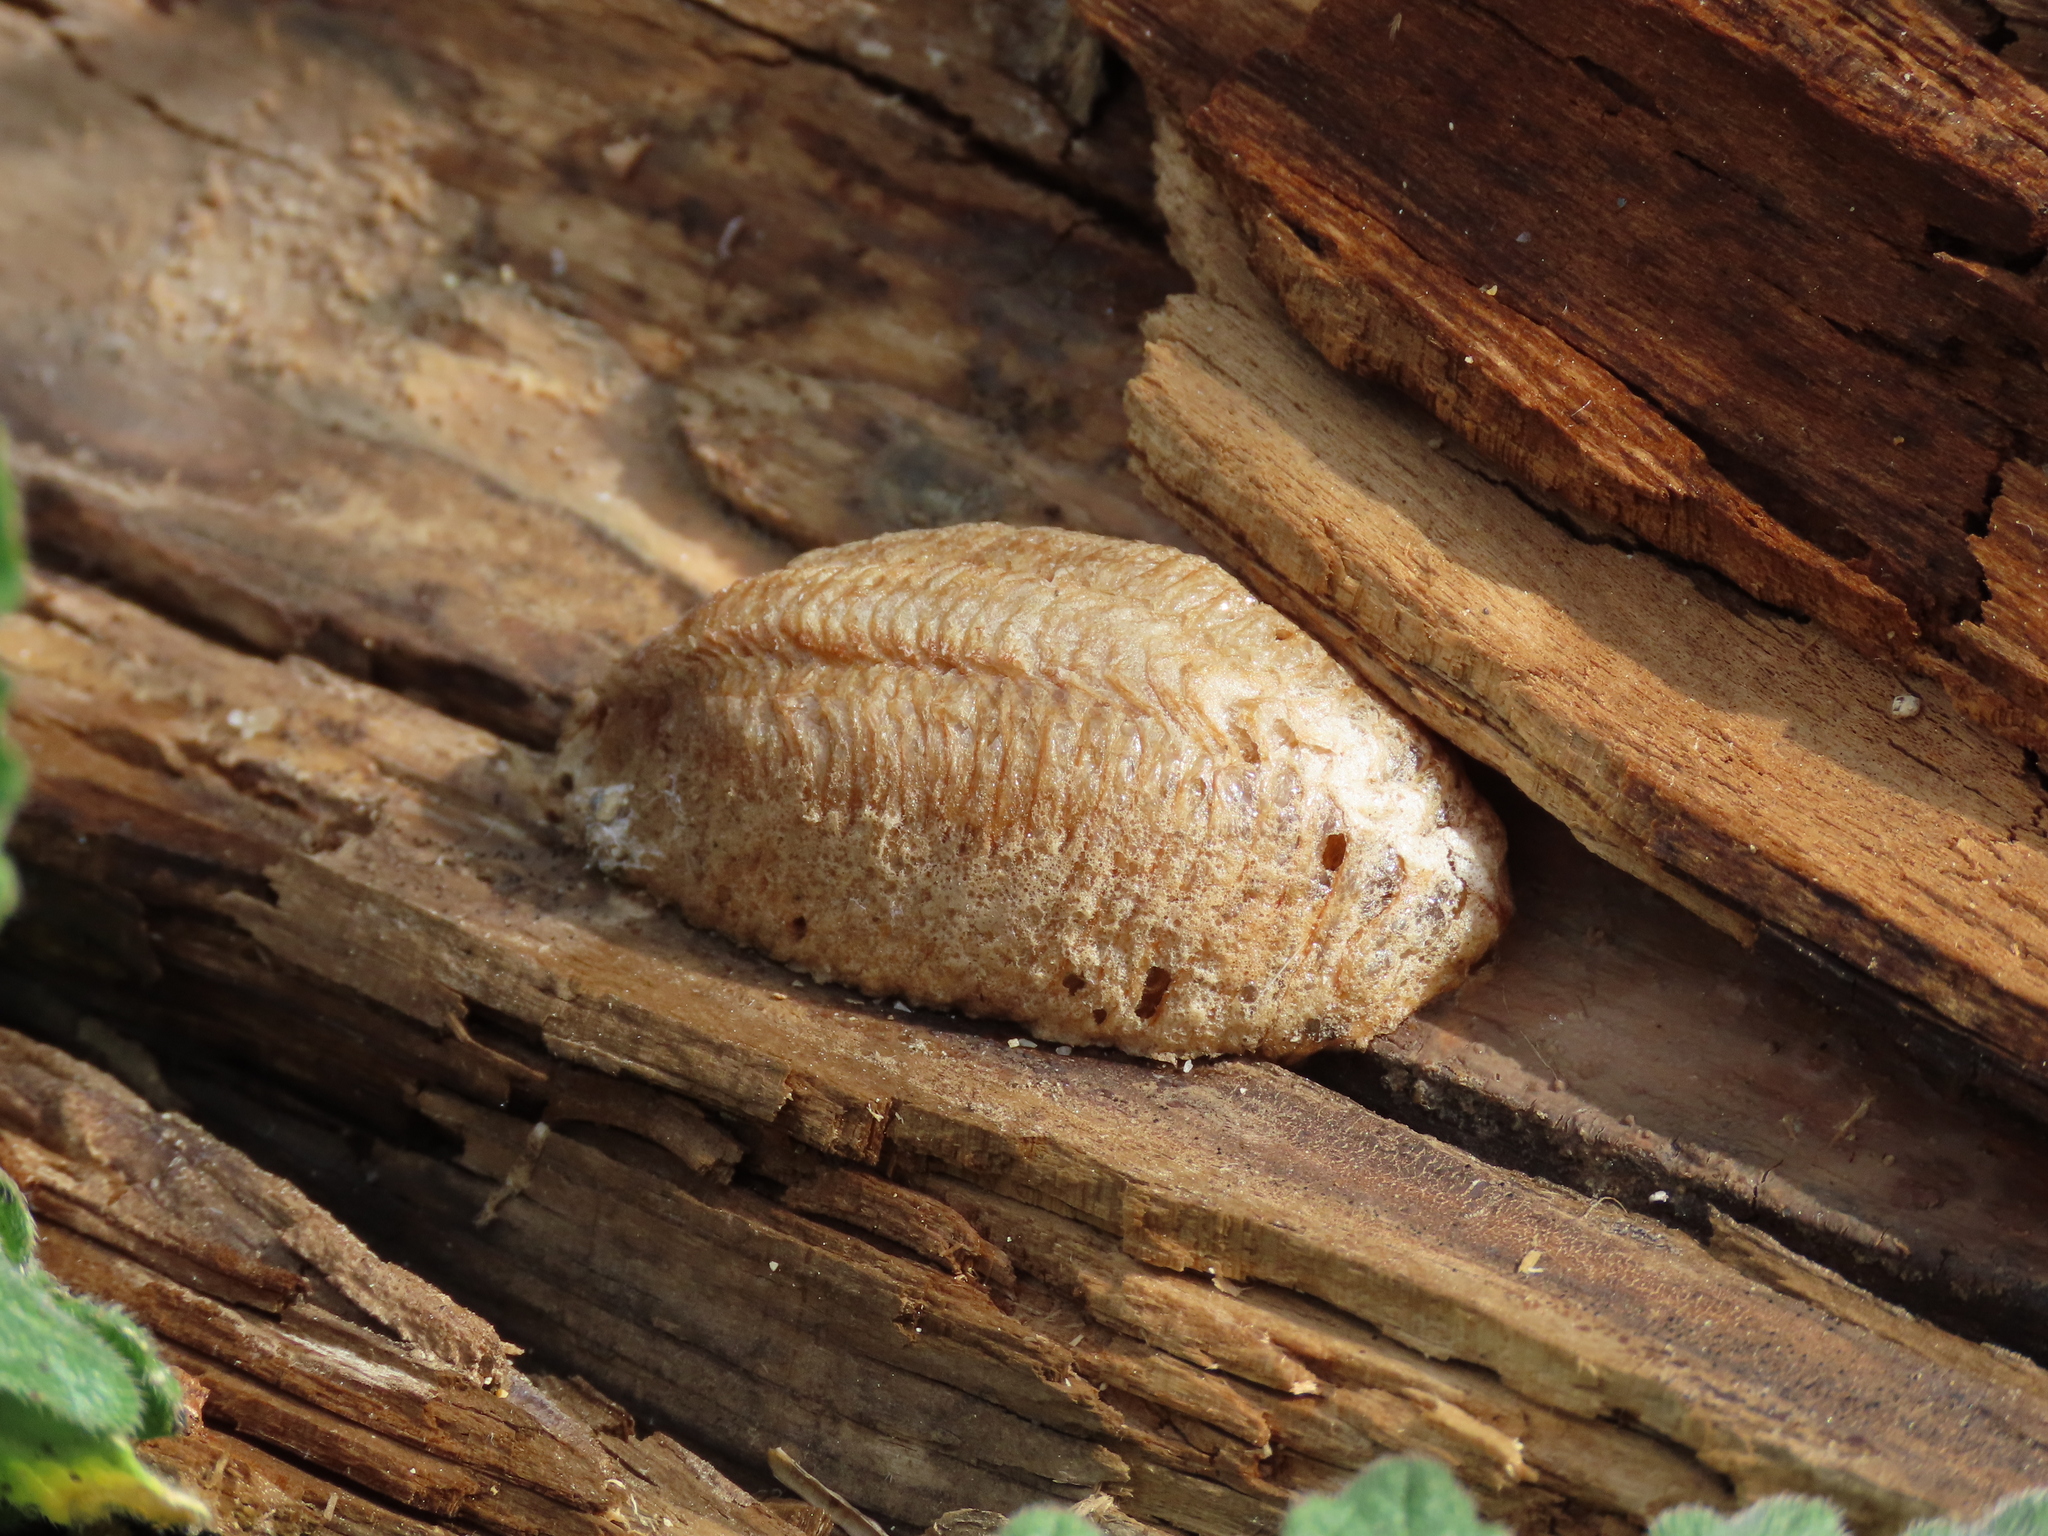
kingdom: Animalia
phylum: Arthropoda
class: Insecta
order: Mantodea
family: Mantidae
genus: Mantis
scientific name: Mantis religiosa
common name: Praying mantis
